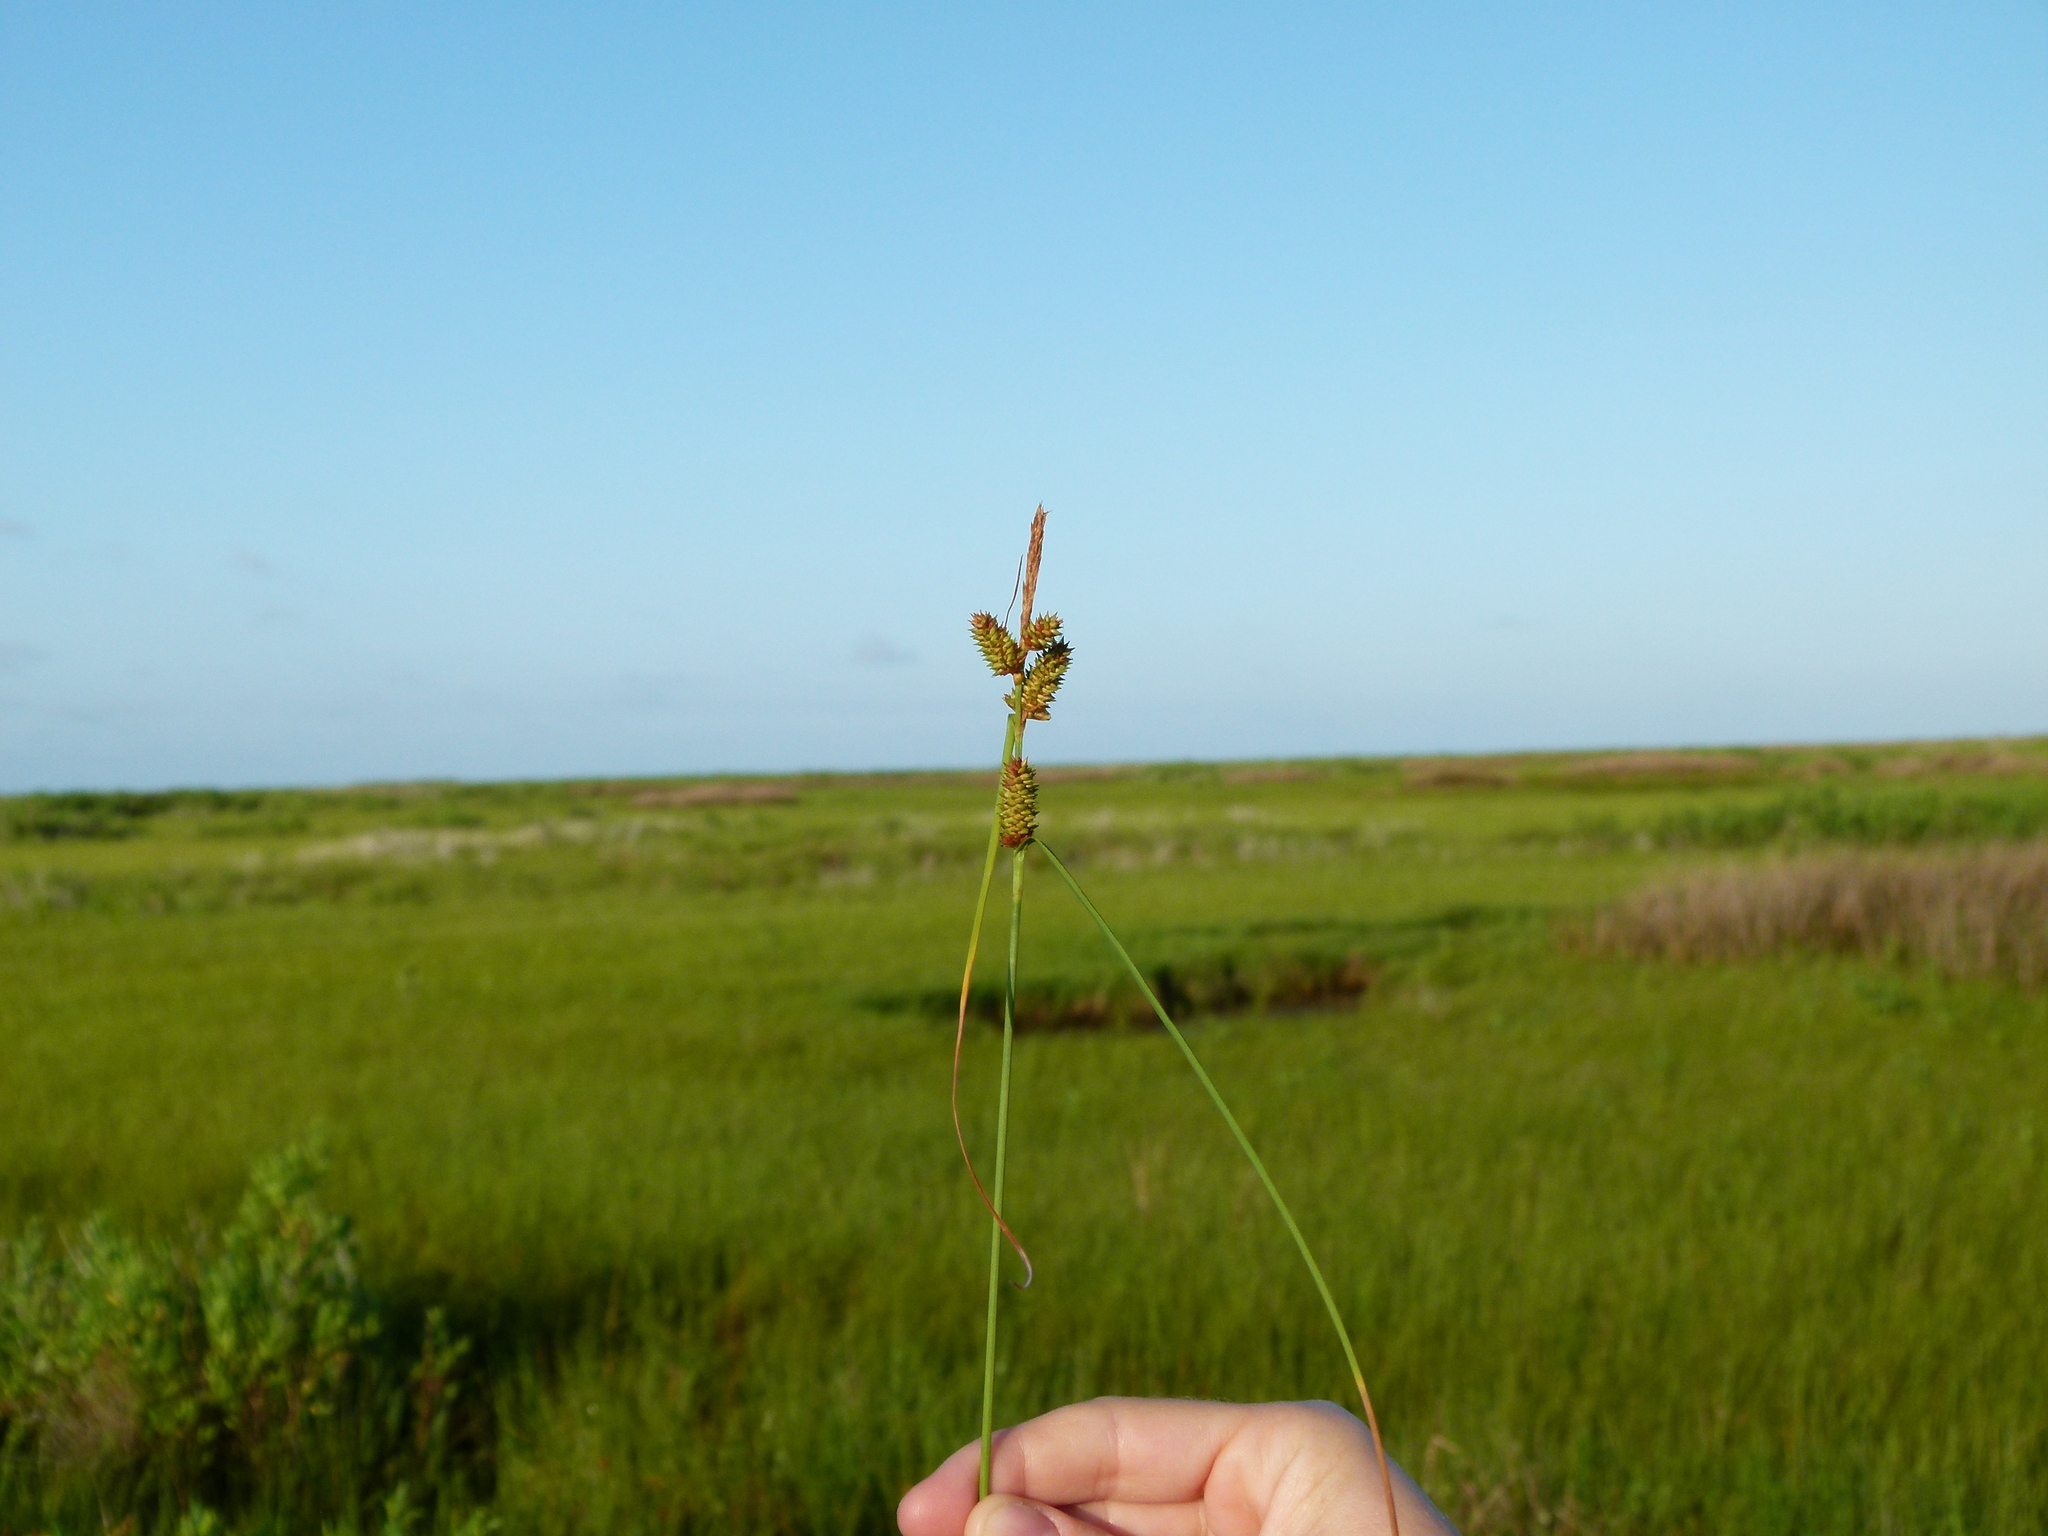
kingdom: Plantae
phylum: Tracheophyta
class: Liliopsida
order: Poales
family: Cyperaceae
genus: Carex
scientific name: Carex extensa
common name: Long-bracted sedge
